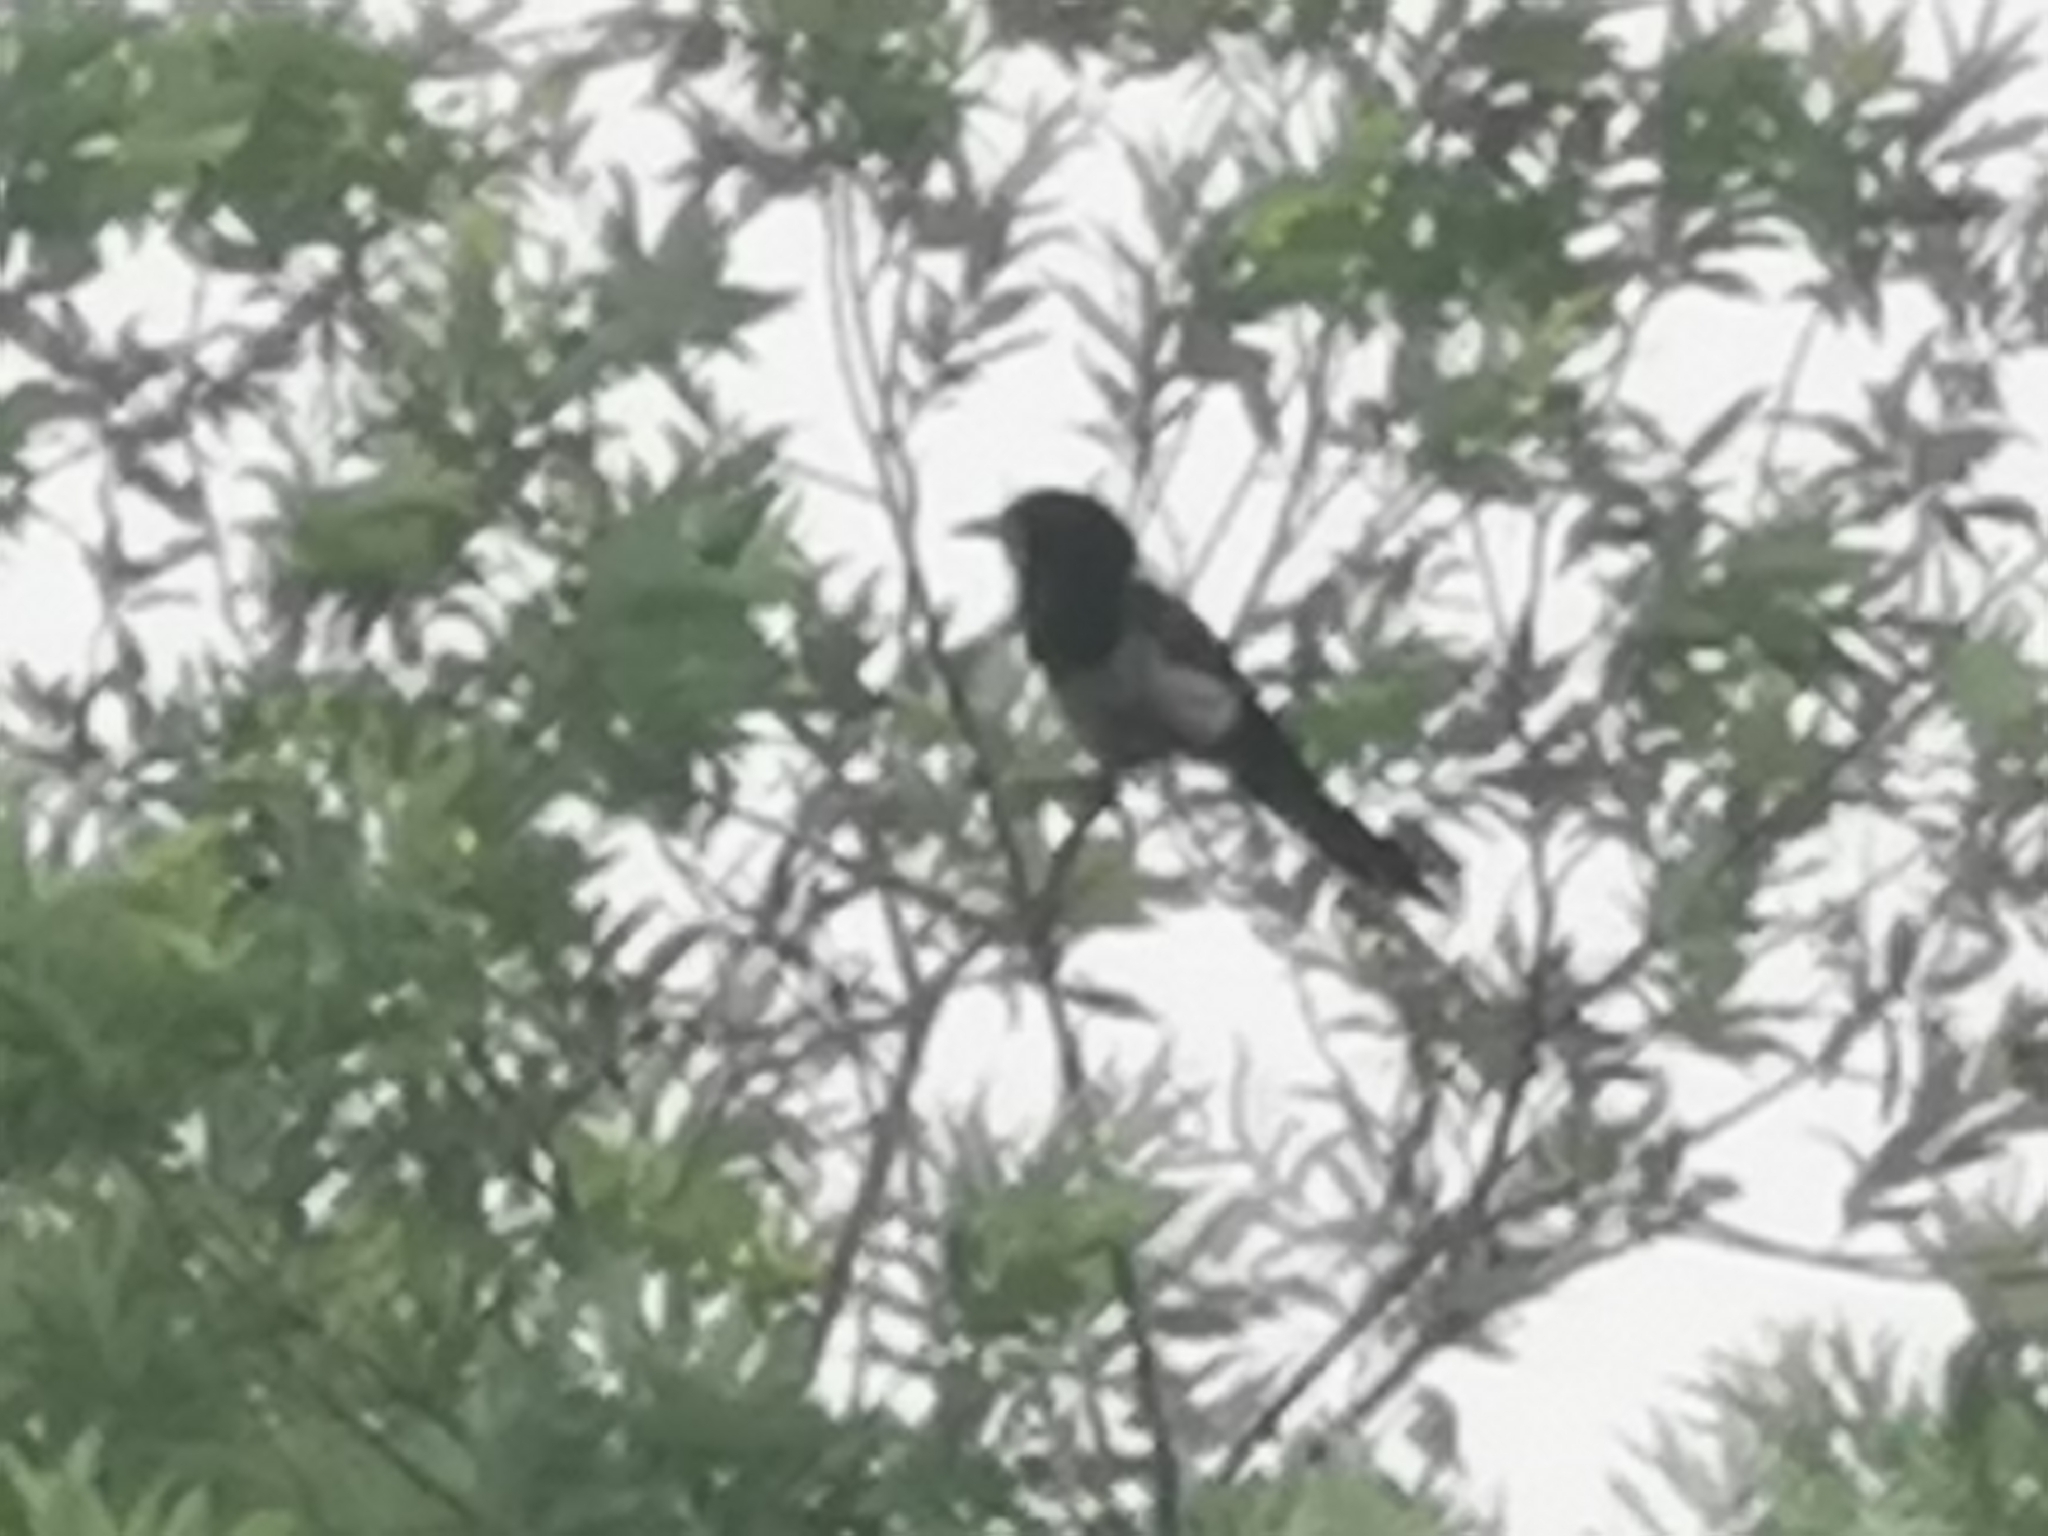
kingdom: Animalia
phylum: Chordata
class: Aves
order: Passeriformes
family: Corvidae
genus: Pica
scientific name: Pica pica
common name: Eurasian magpie
